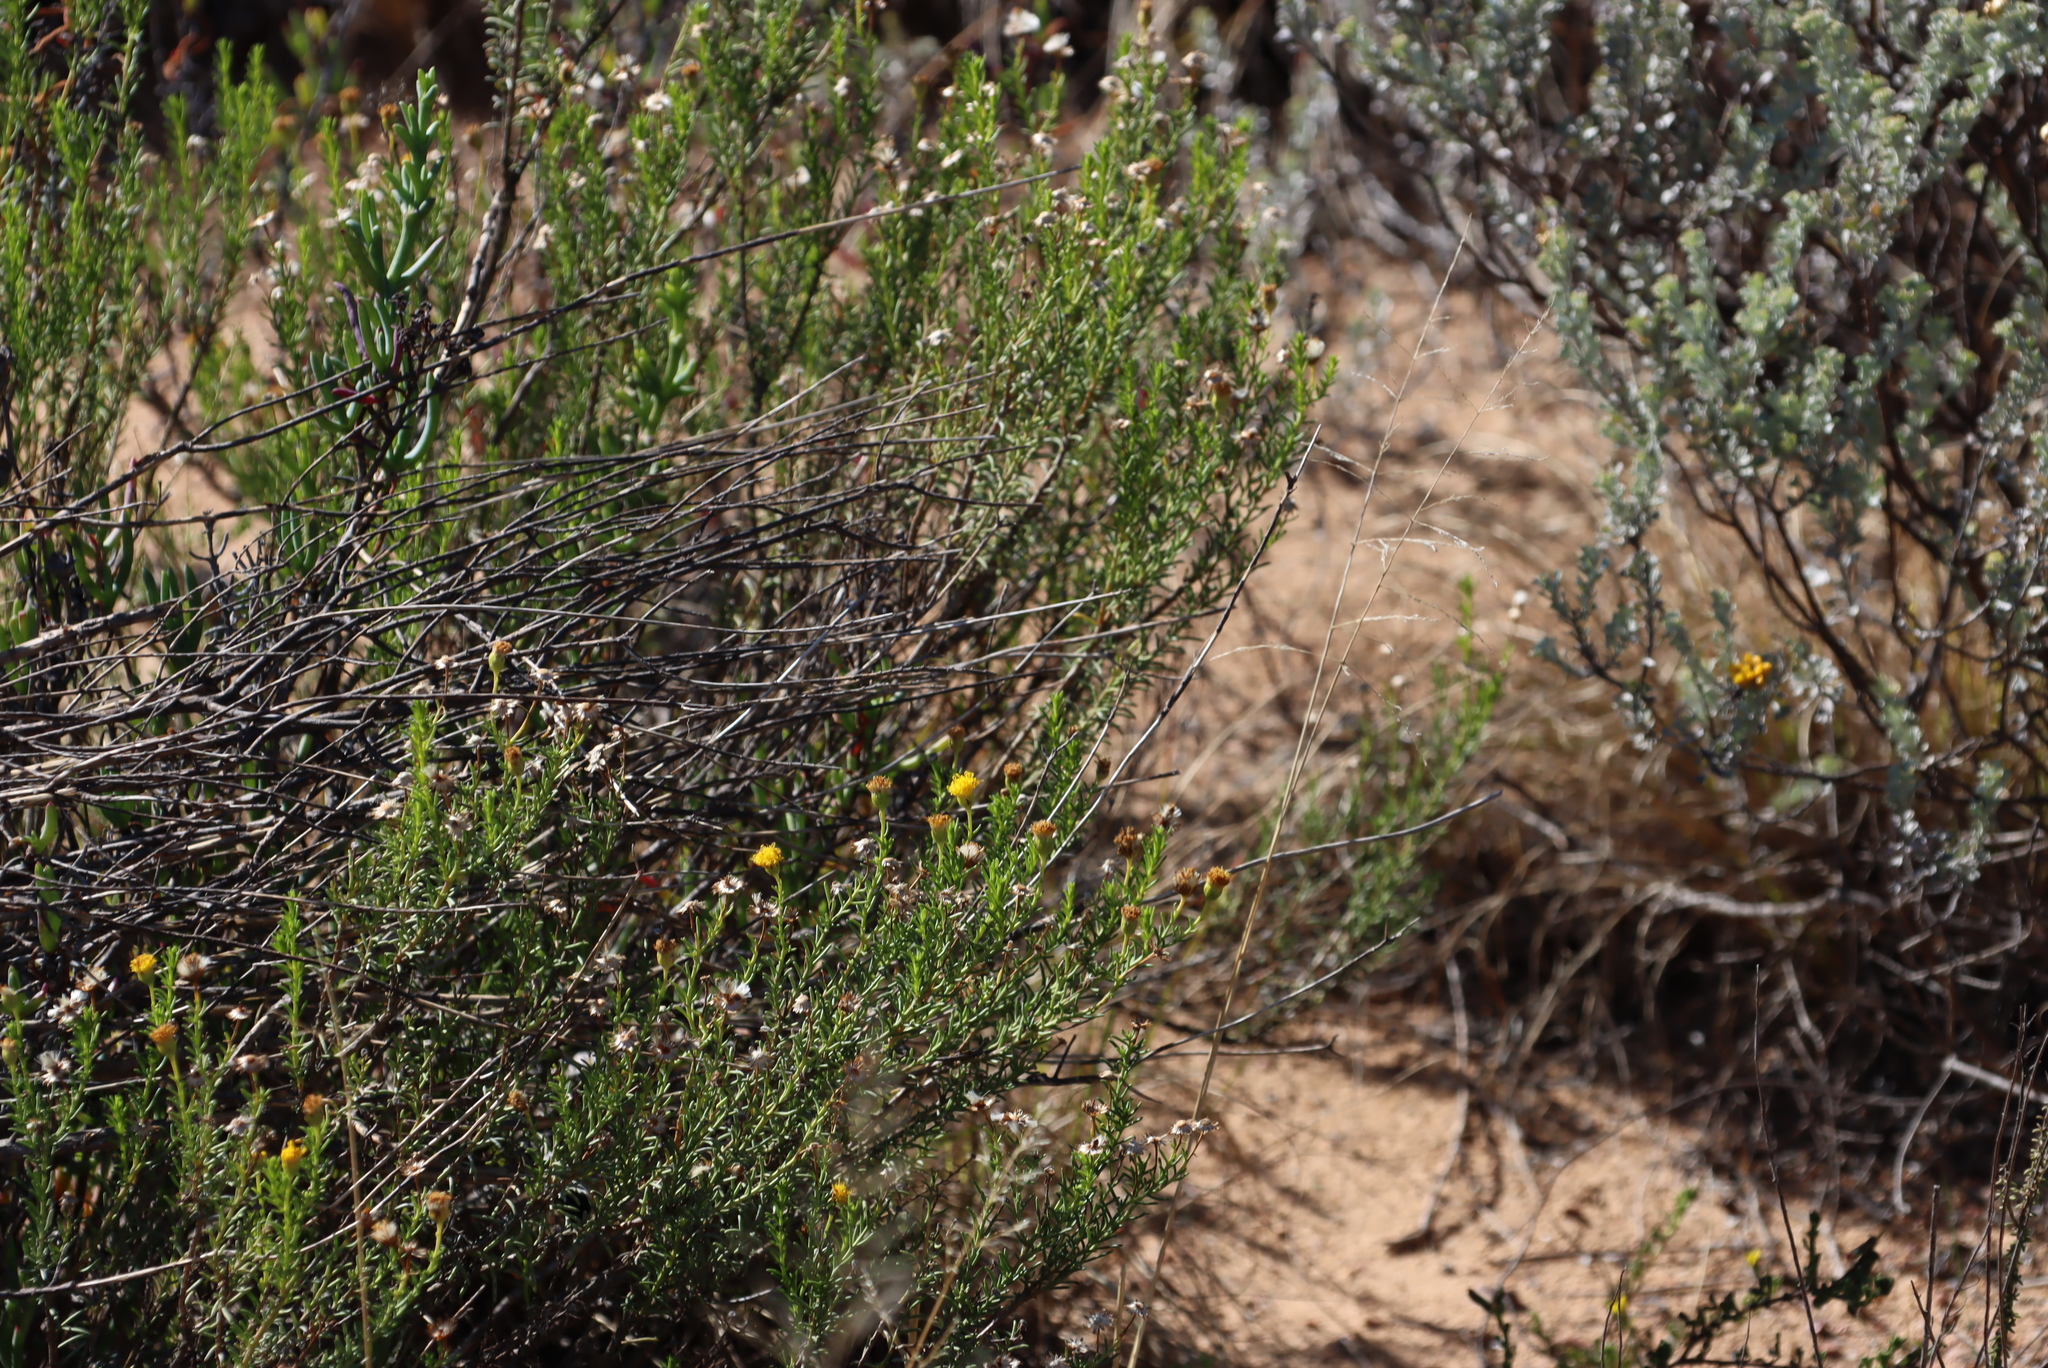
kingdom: Plantae
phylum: Tracheophyta
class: Magnoliopsida
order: Asterales
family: Asteraceae
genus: Chrysocoma
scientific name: Chrysocoma ciliata
